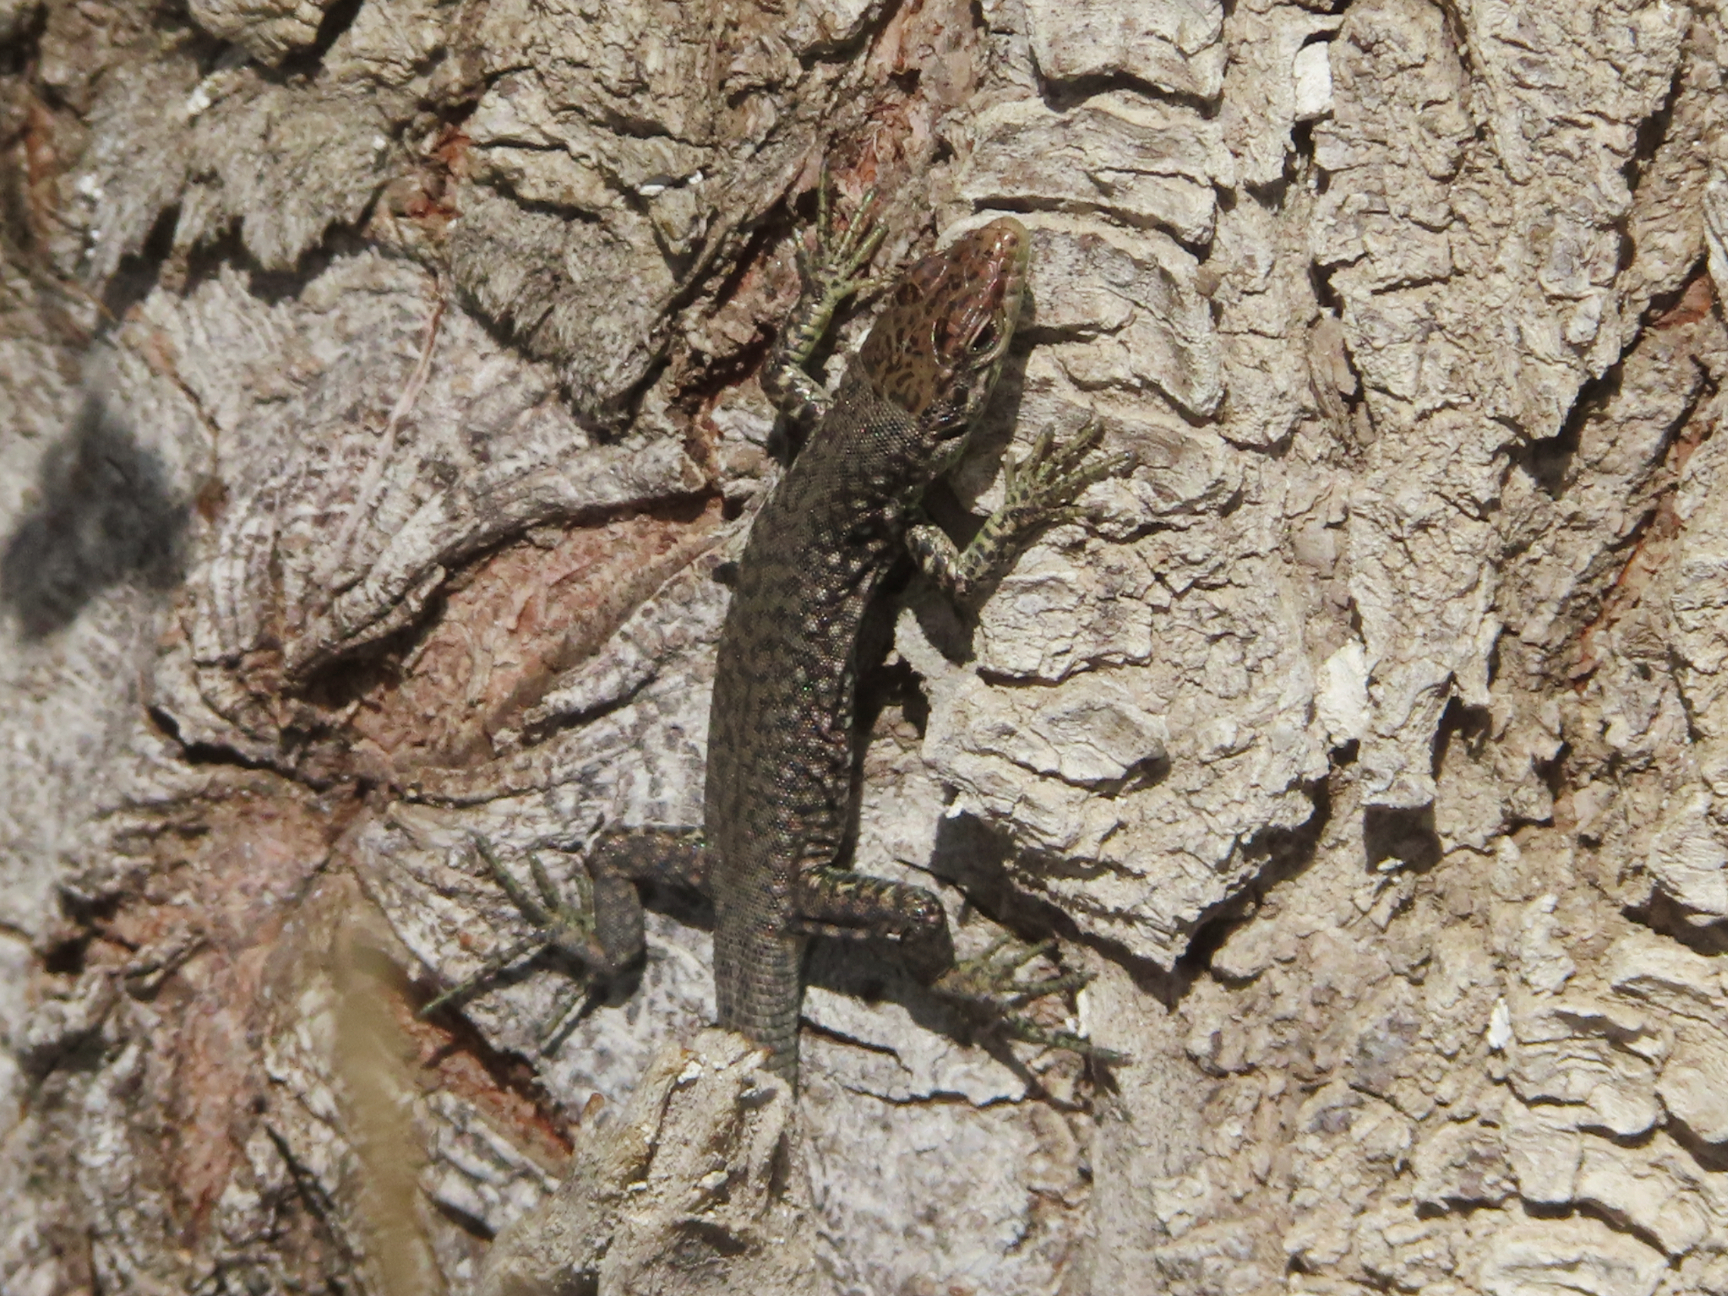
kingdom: Animalia
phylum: Chordata
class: Squamata
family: Lacertidae
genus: Darevskia
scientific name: Darevskia
